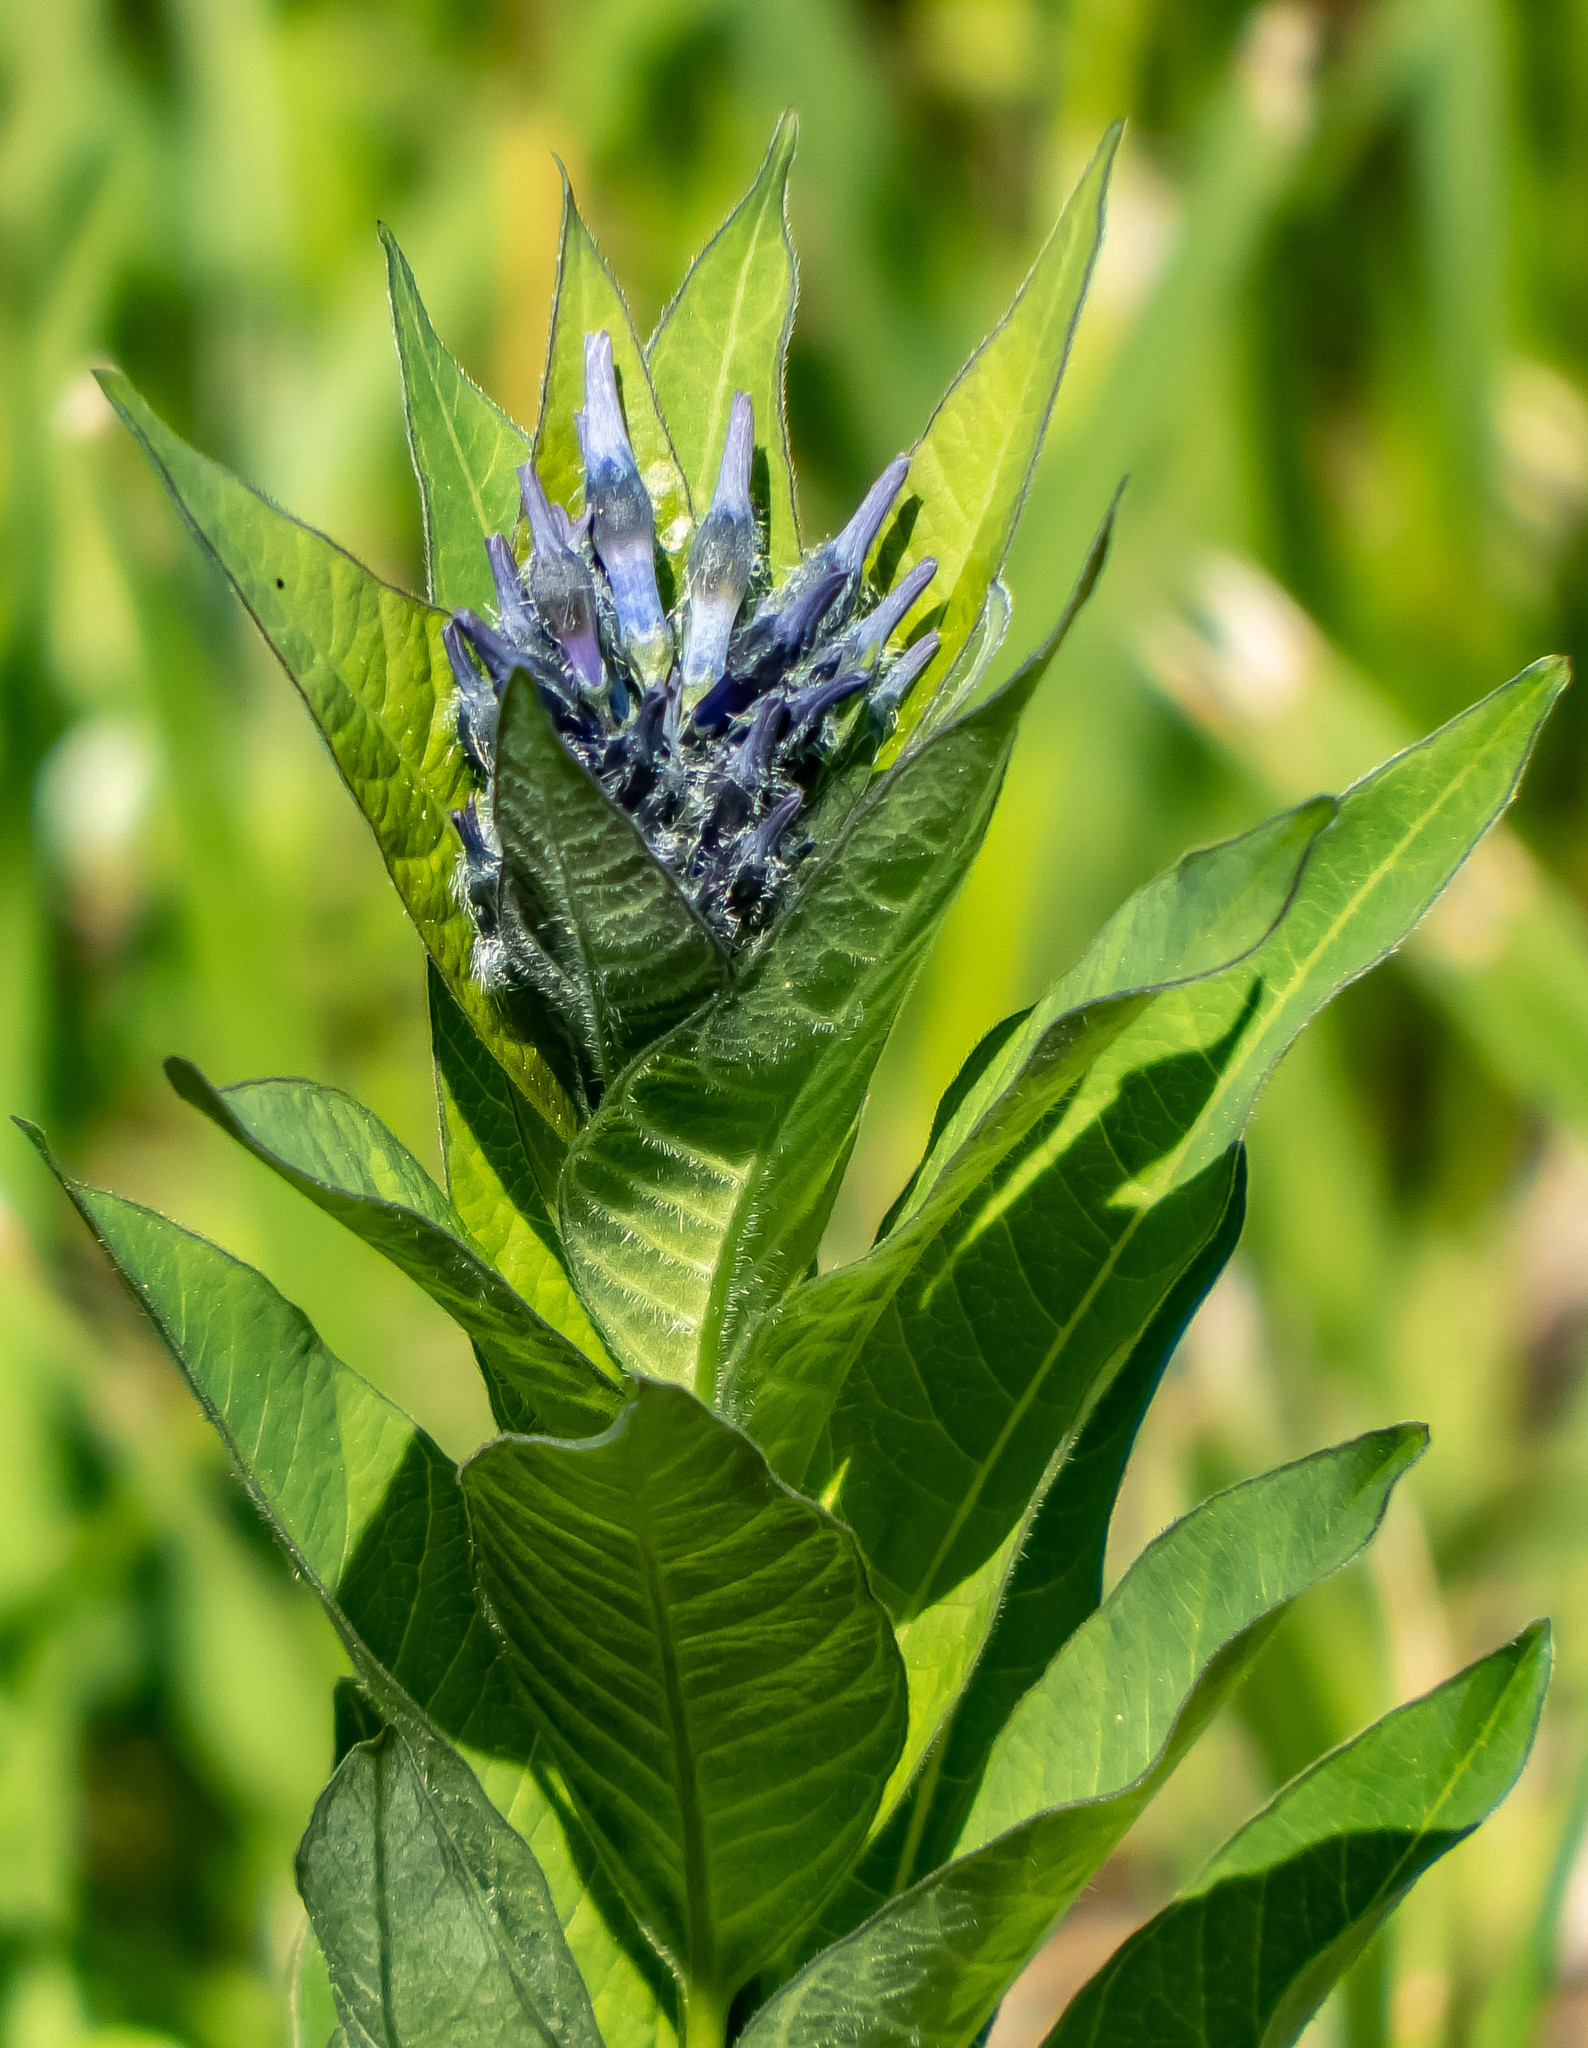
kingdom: Plantae
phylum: Tracheophyta
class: Magnoliopsida
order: Gentianales
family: Apocynaceae
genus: Amsonia
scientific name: Amsonia tabernaemontana
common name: Texas-star
